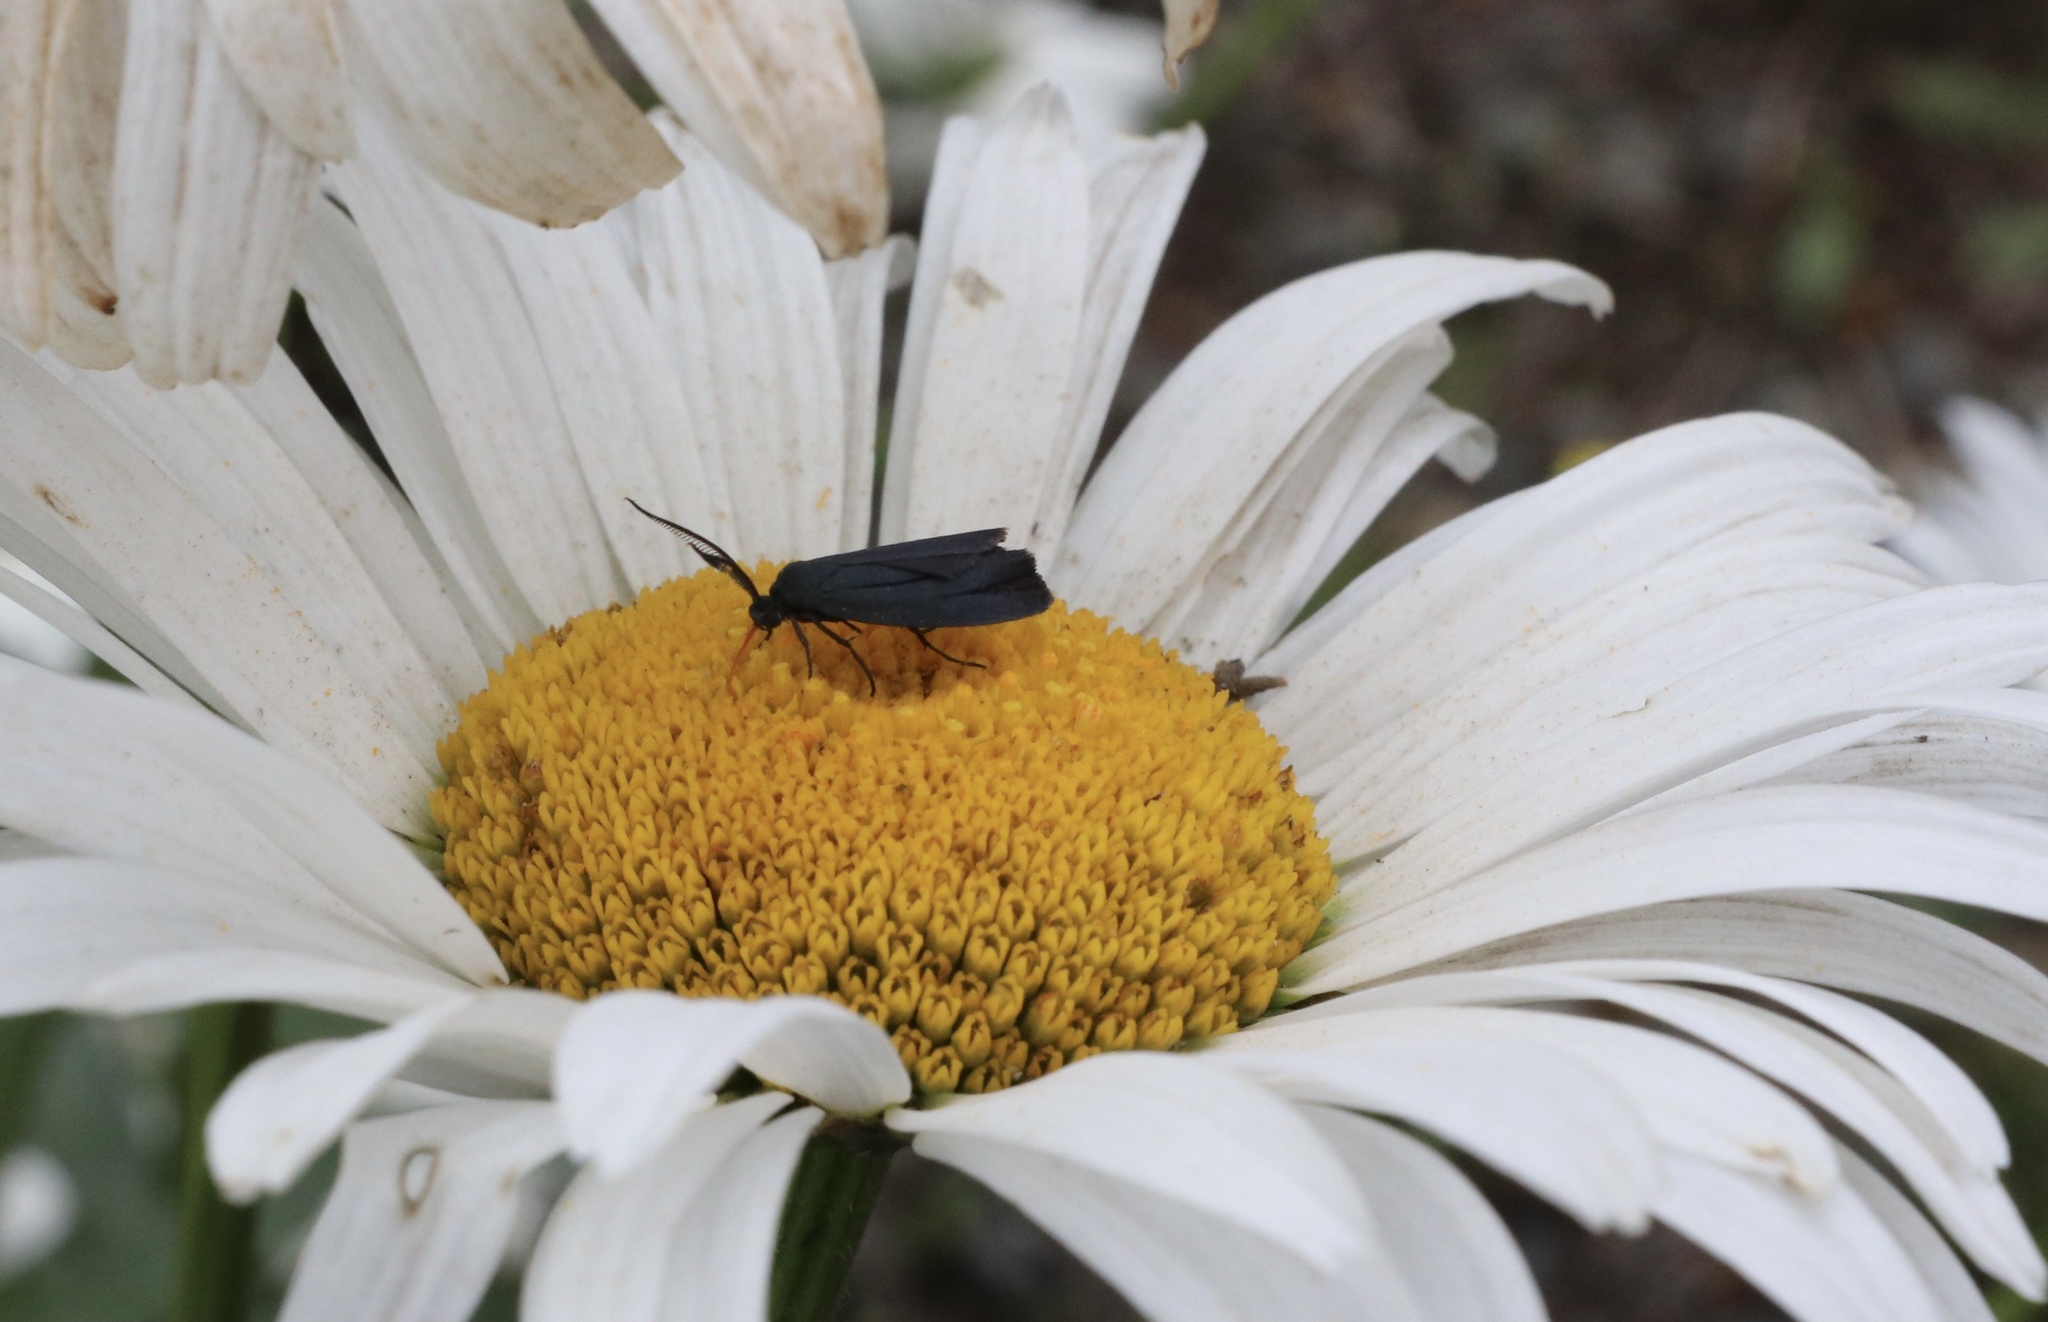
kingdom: Animalia
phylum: Arthropoda
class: Insecta
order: Lepidoptera
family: Zygaenidae
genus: Malamblia
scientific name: Malamblia
